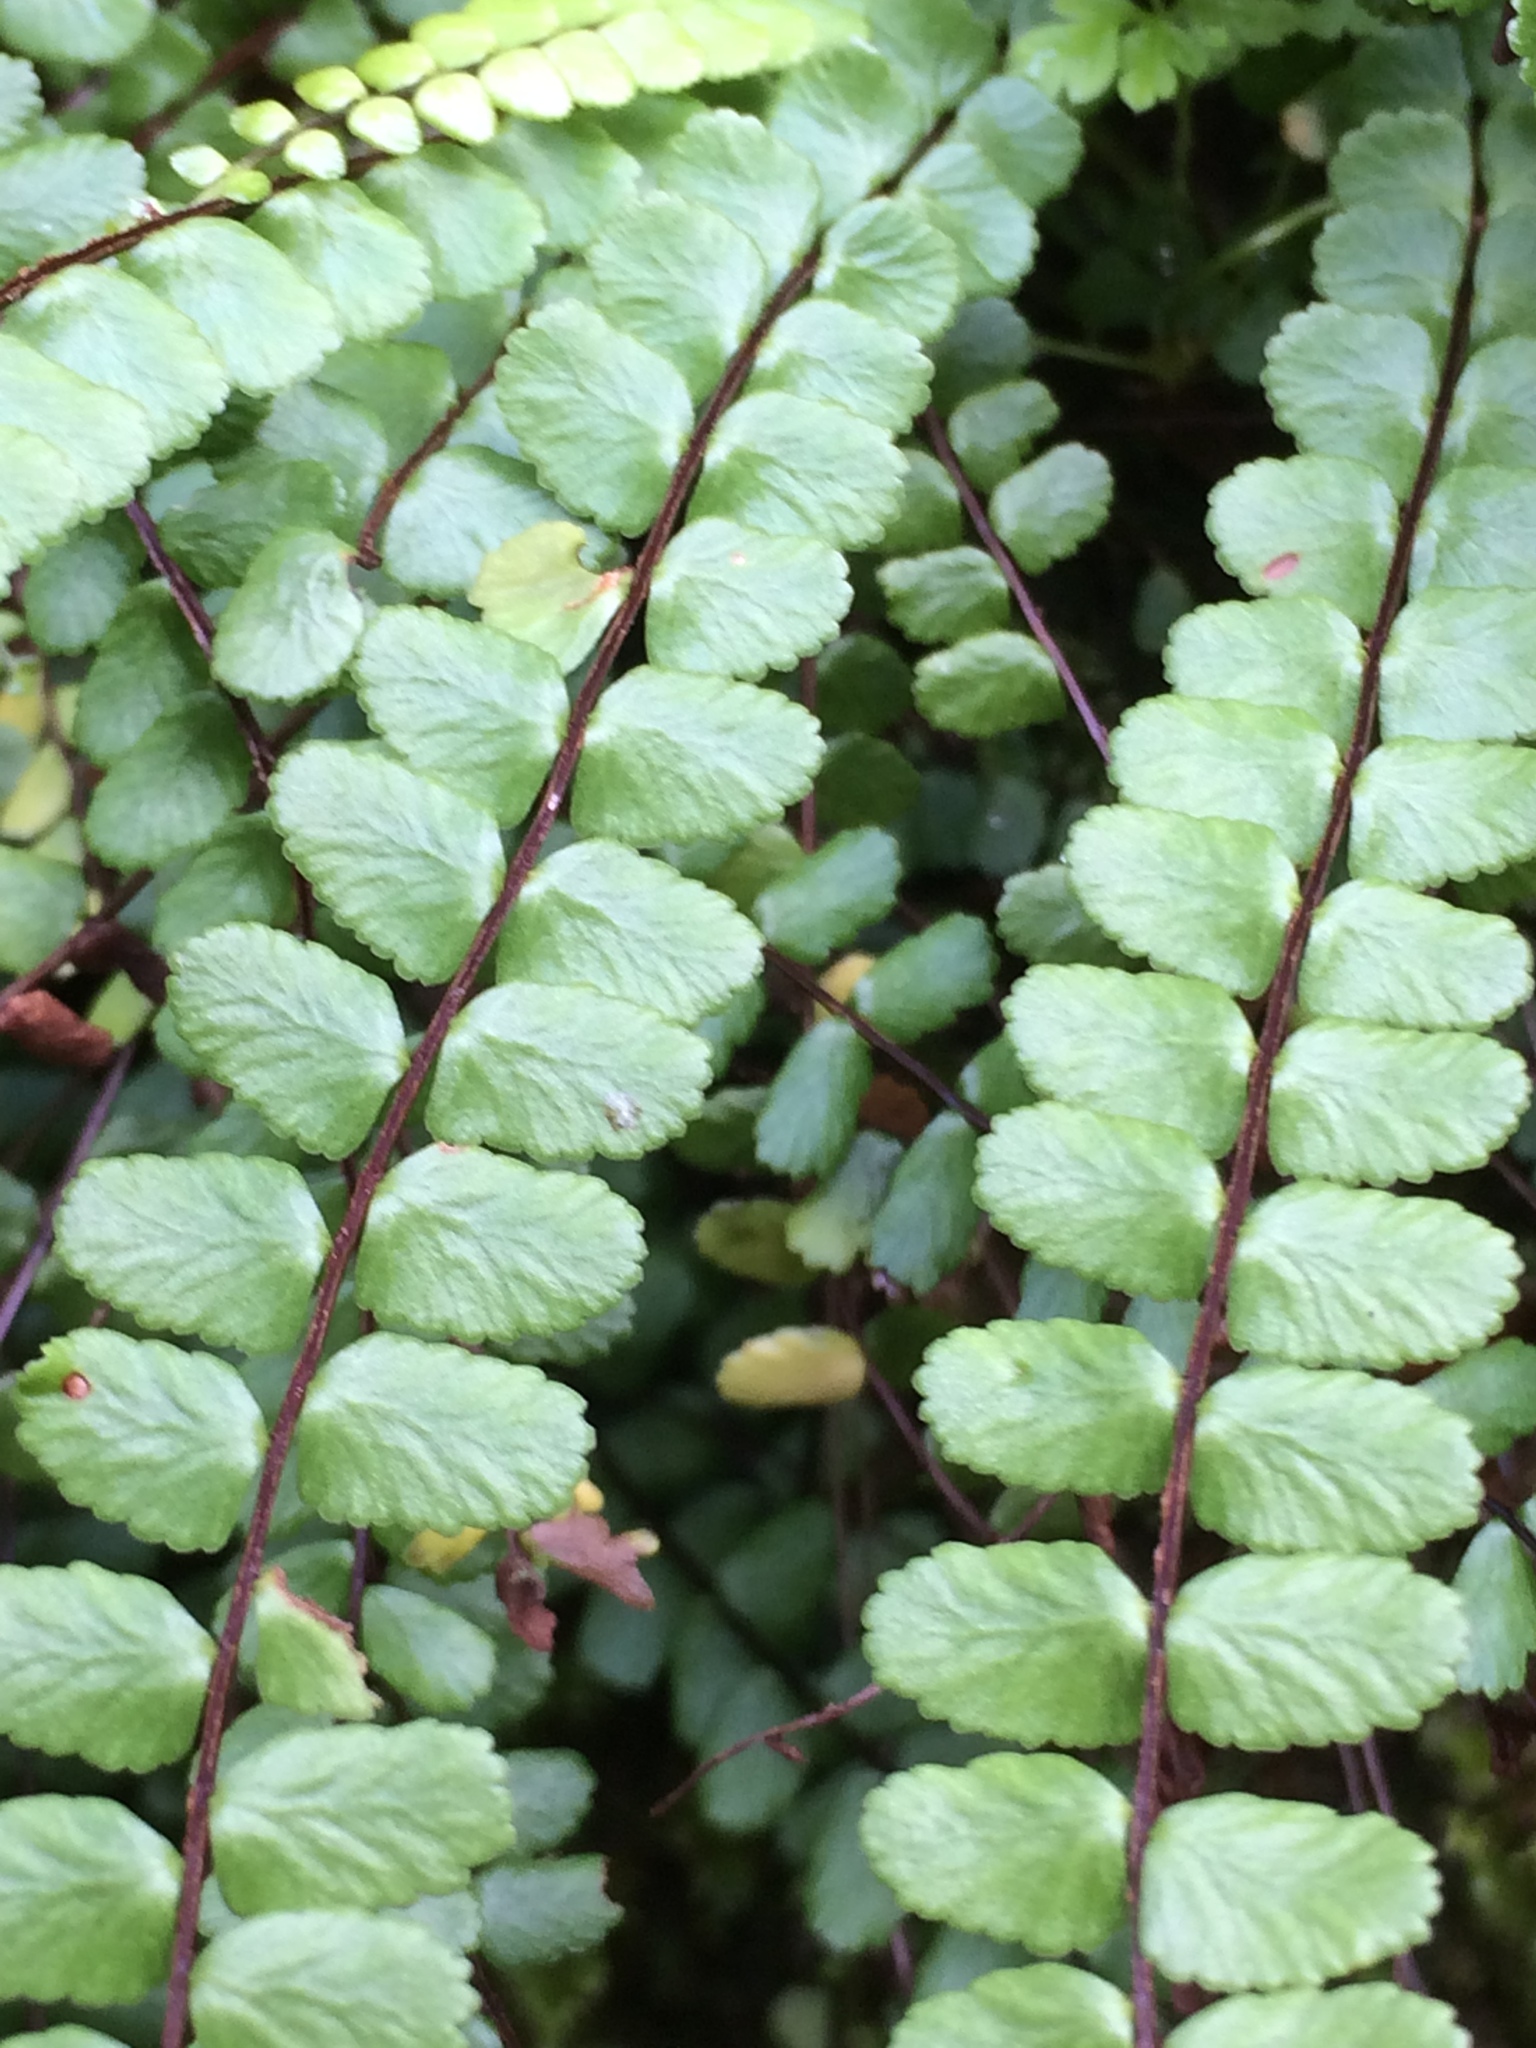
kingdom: Plantae
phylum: Tracheophyta
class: Polypodiopsida
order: Polypodiales
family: Aspleniaceae
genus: Asplenium
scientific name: Asplenium trichomanes
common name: Maidenhair spleenwort
